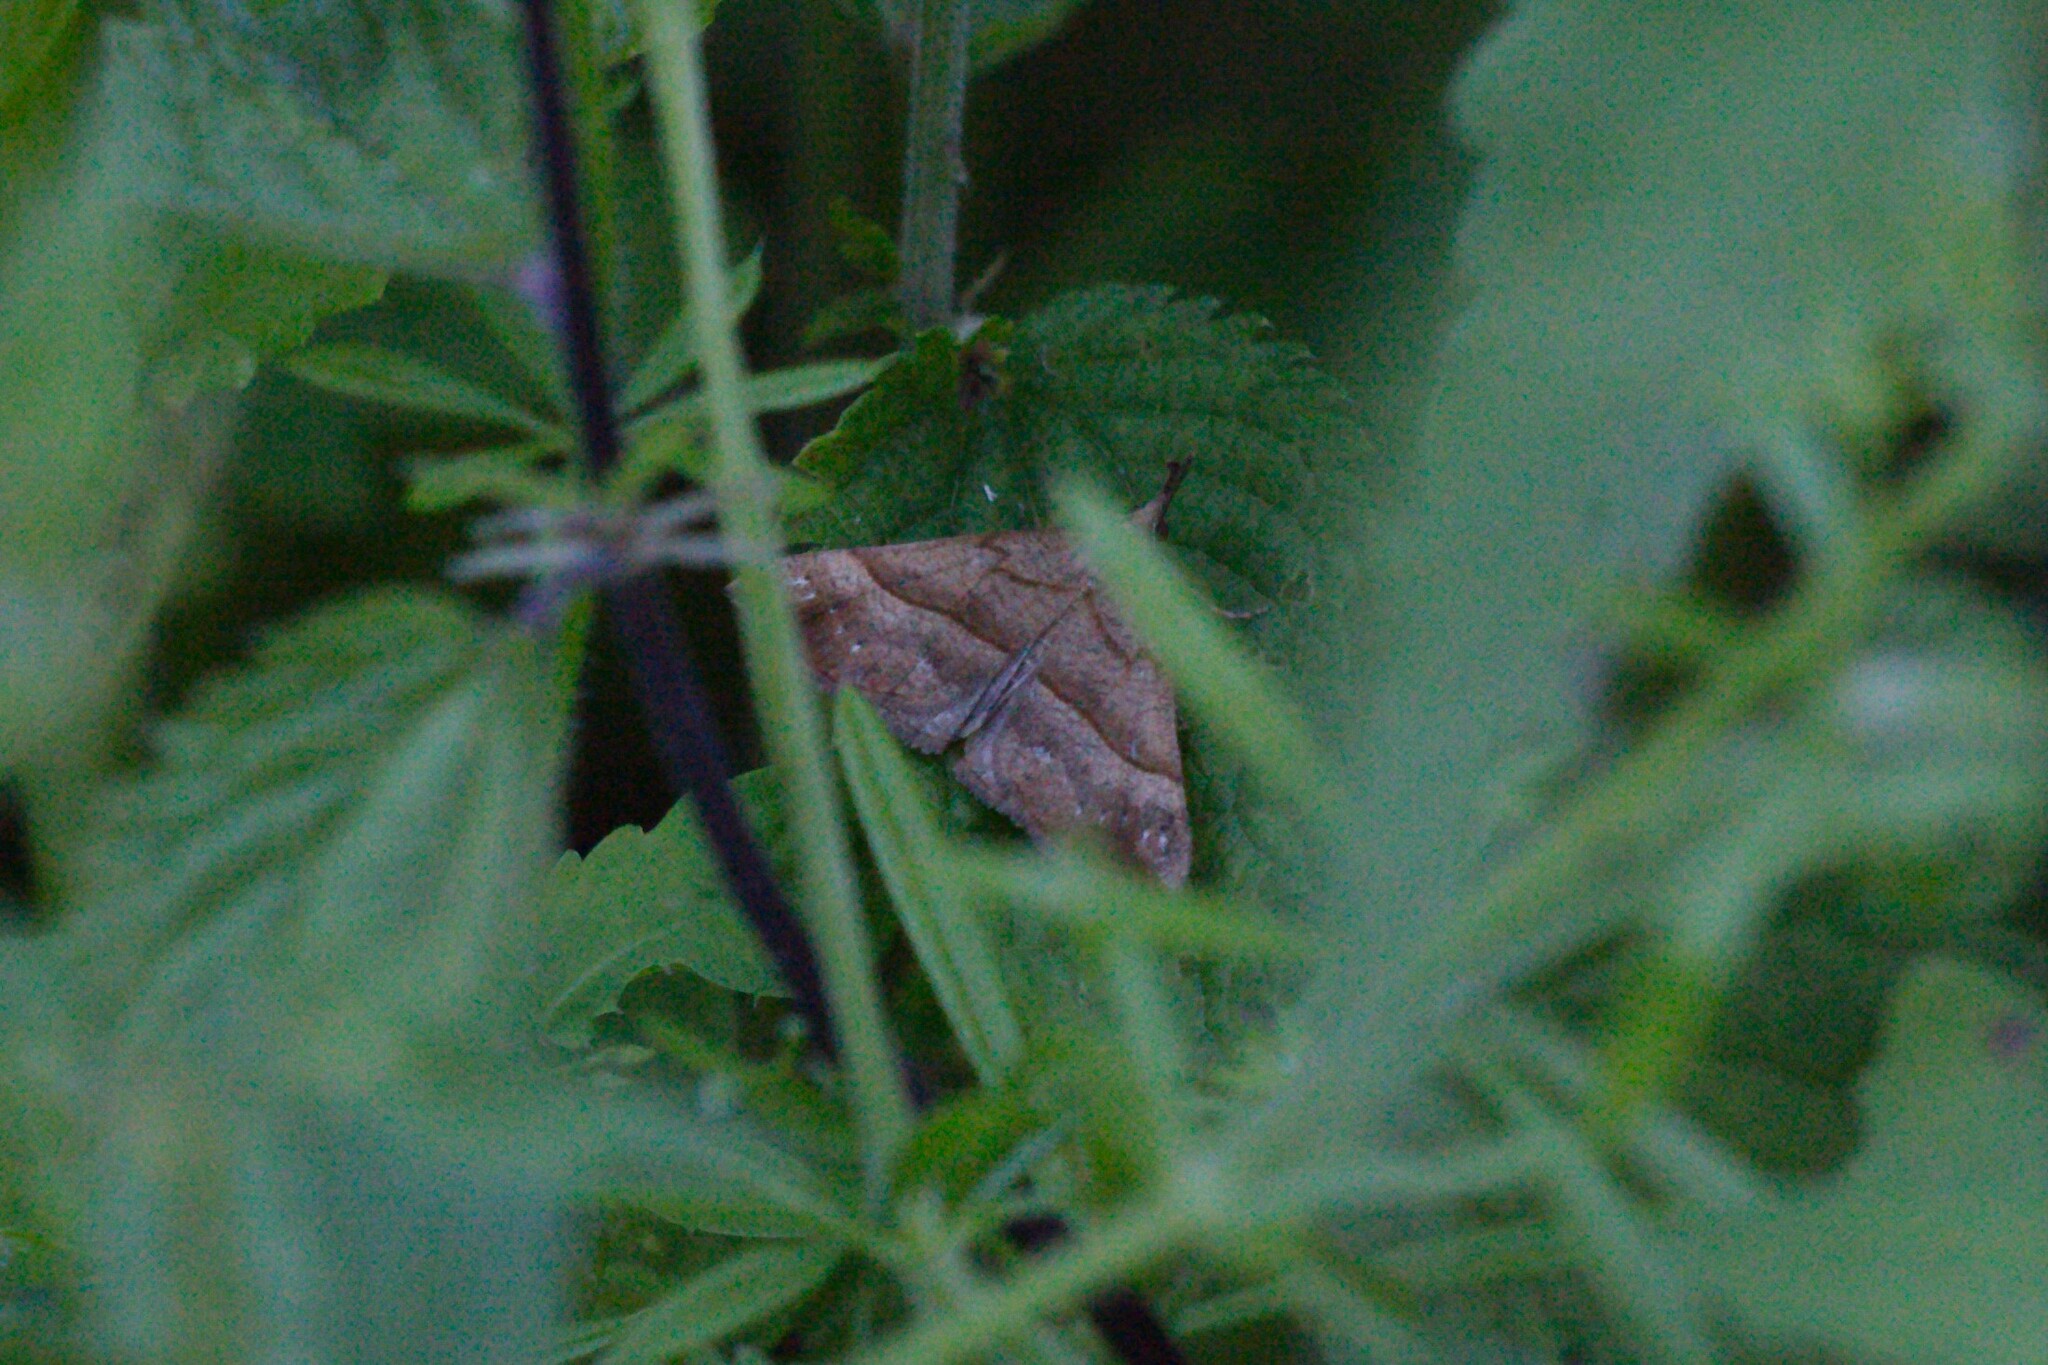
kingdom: Animalia
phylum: Arthropoda
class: Insecta
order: Lepidoptera
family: Erebidae
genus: Hypena
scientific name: Hypena proboscidalis
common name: Snout
